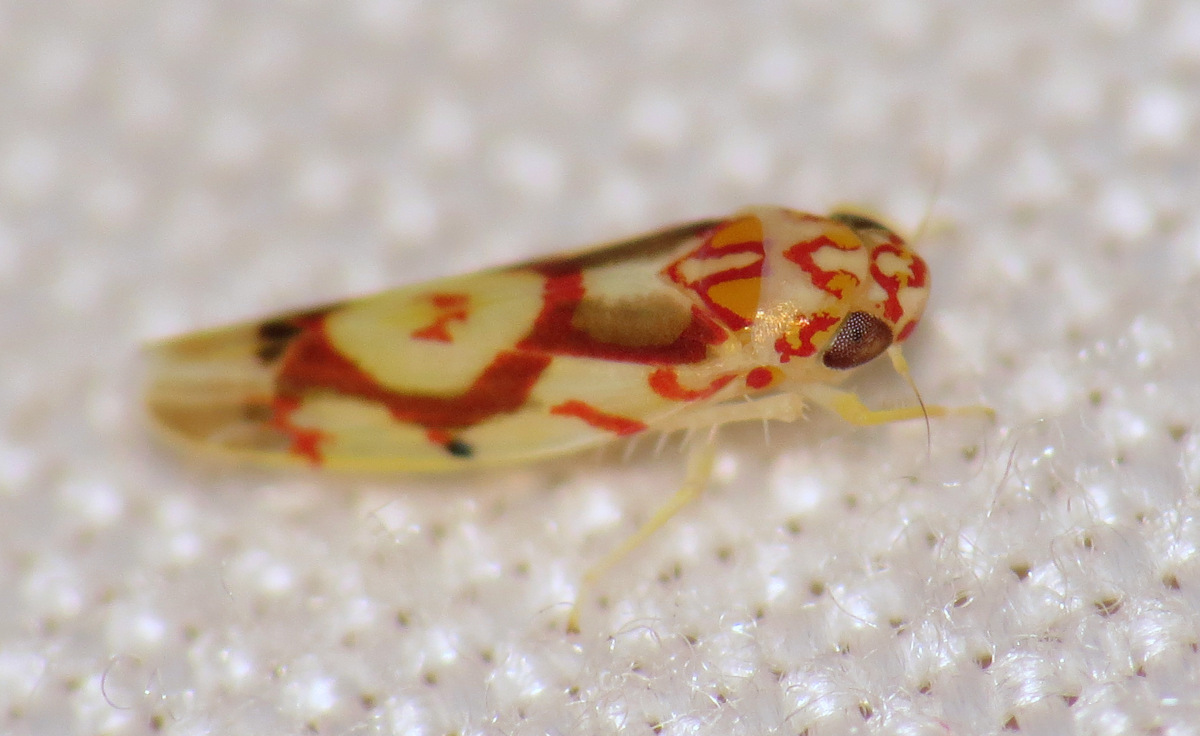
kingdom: Animalia
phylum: Arthropoda
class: Insecta
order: Hemiptera
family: Cicadellidae
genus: Eratoneura
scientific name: Eratoneura ligata
